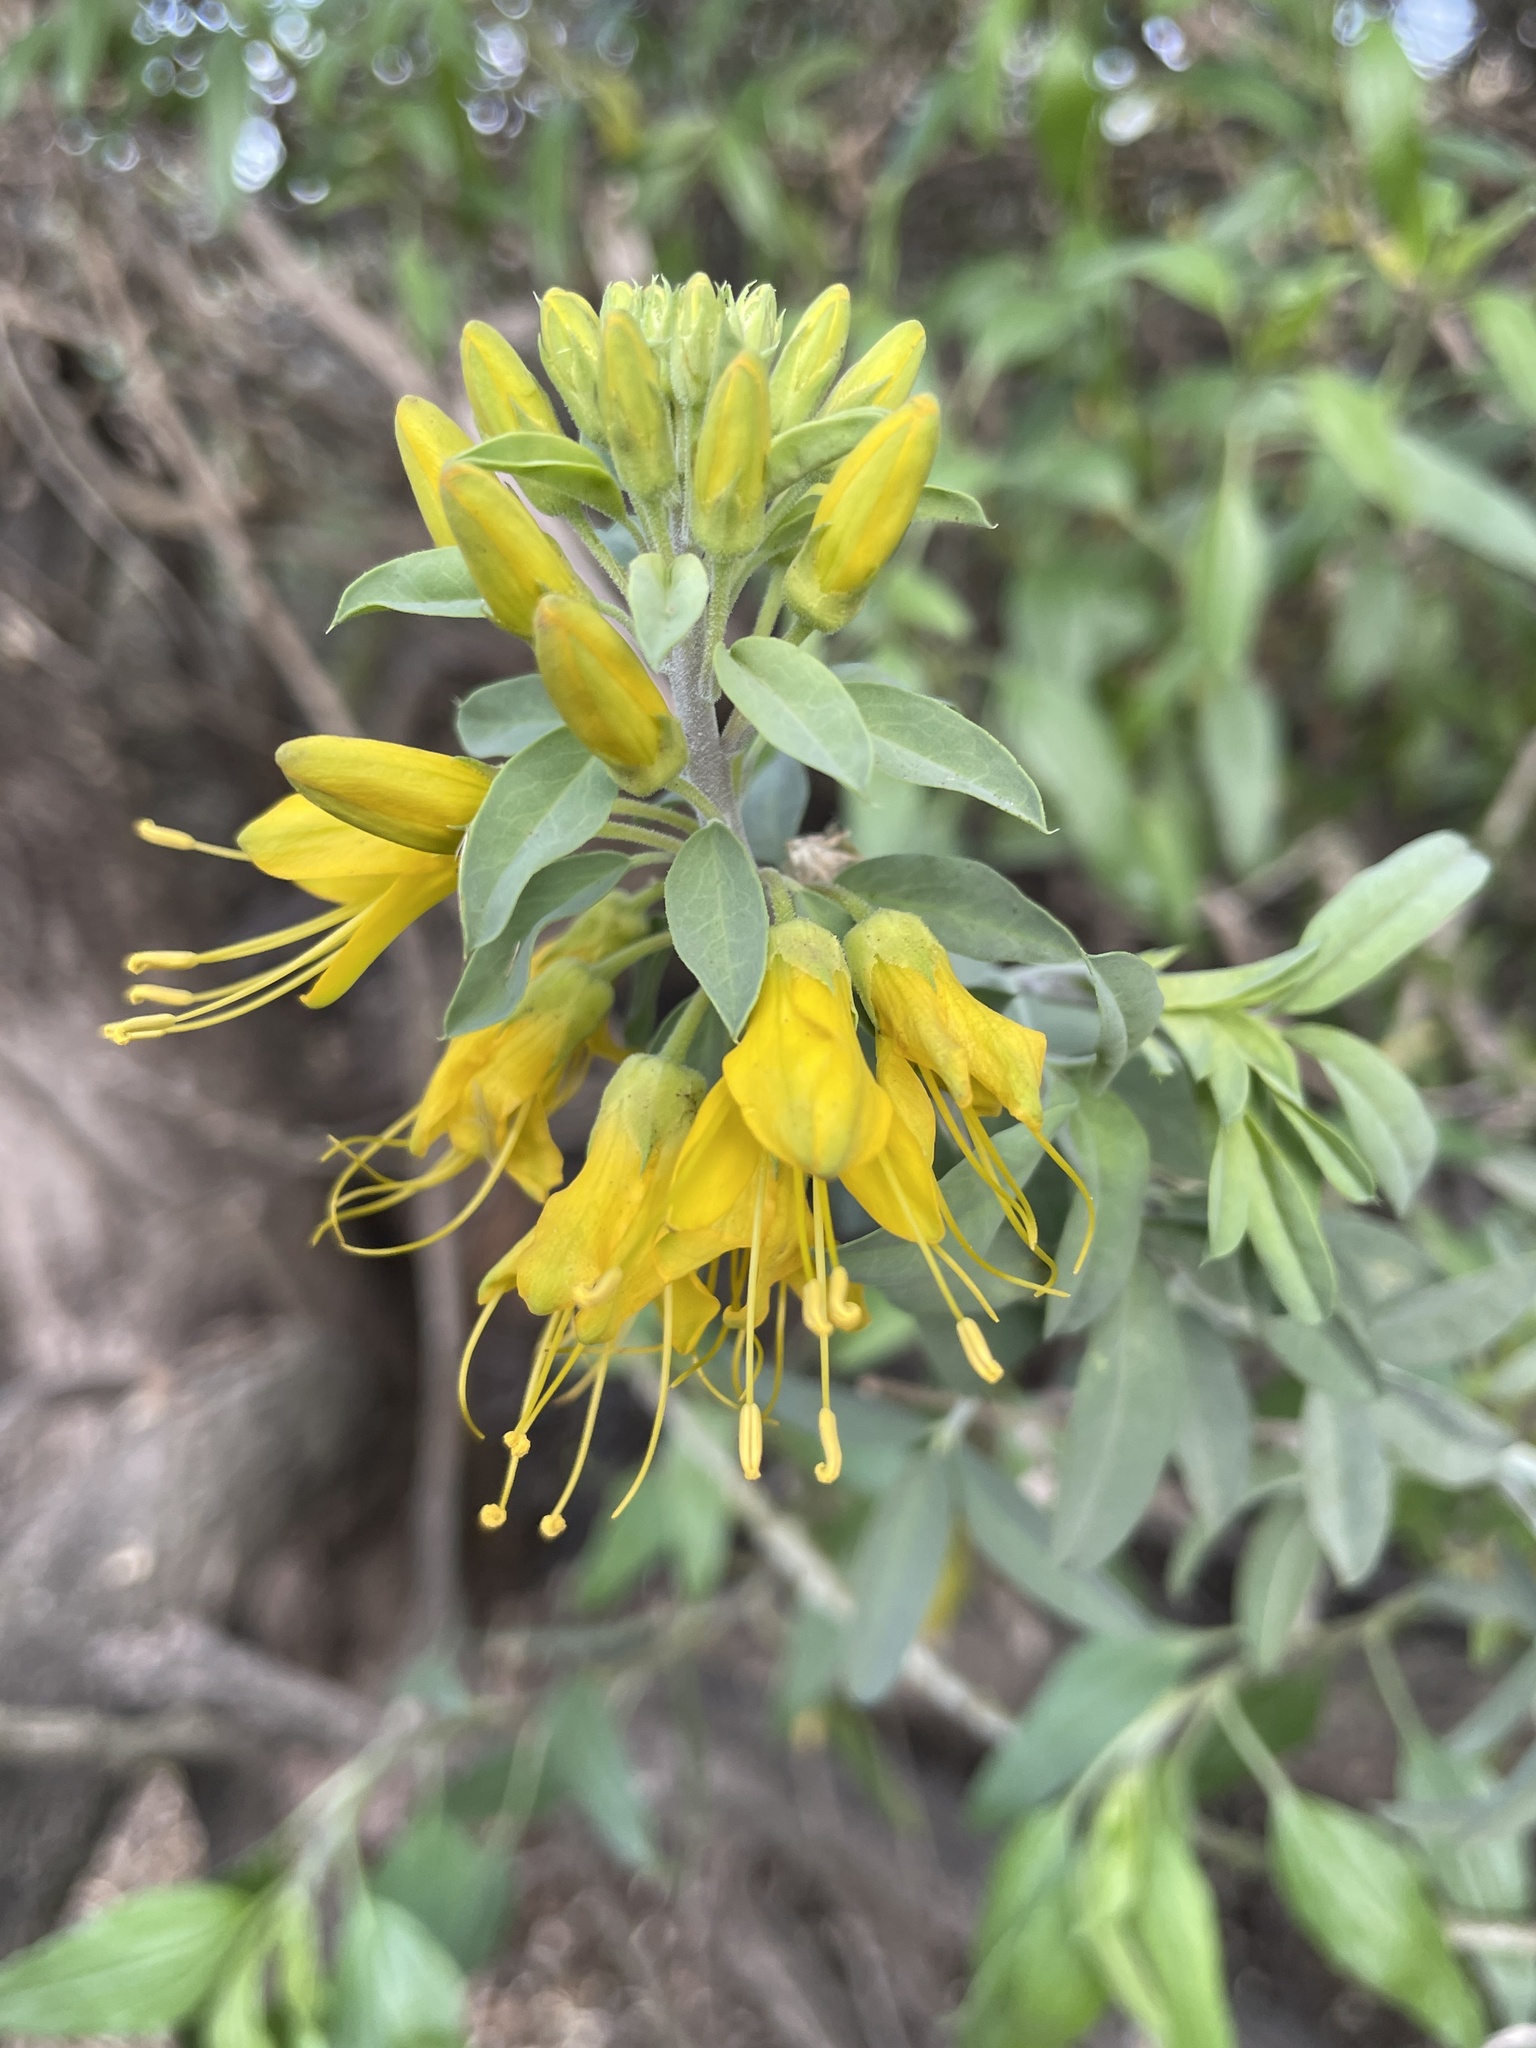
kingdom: Plantae
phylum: Tracheophyta
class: Magnoliopsida
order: Brassicales
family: Cleomaceae
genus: Cleomella
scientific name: Cleomella arborea
